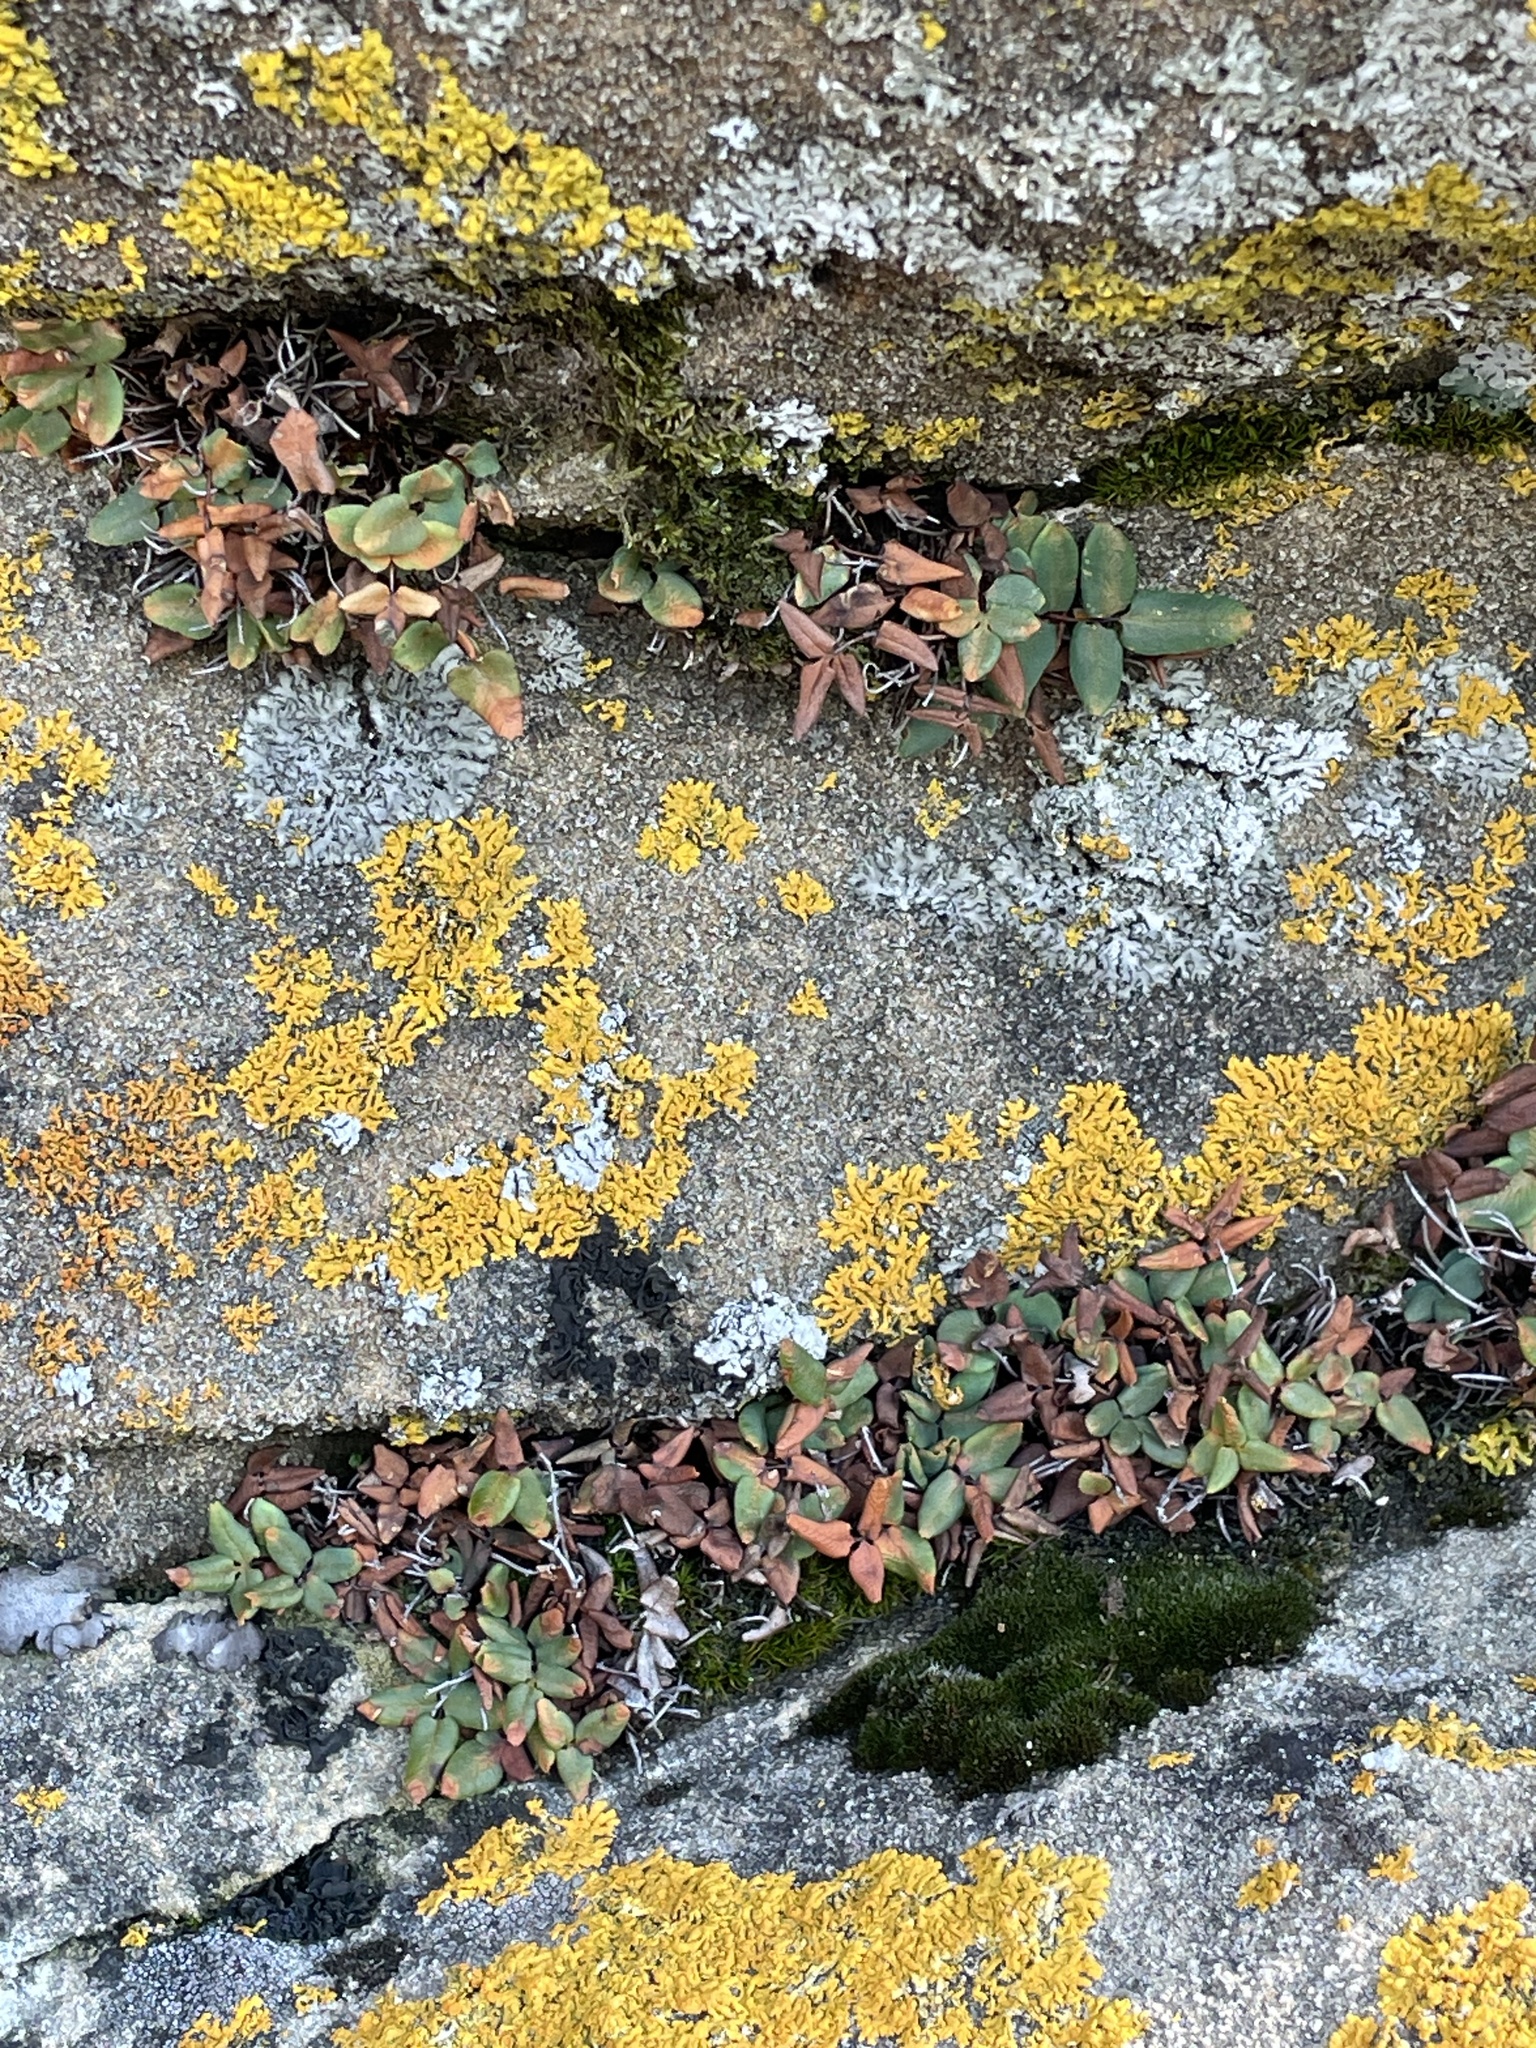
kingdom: Plantae
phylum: Tracheophyta
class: Polypodiopsida
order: Polypodiales
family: Pteridaceae
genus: Pellaea
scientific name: Pellaea glabella
